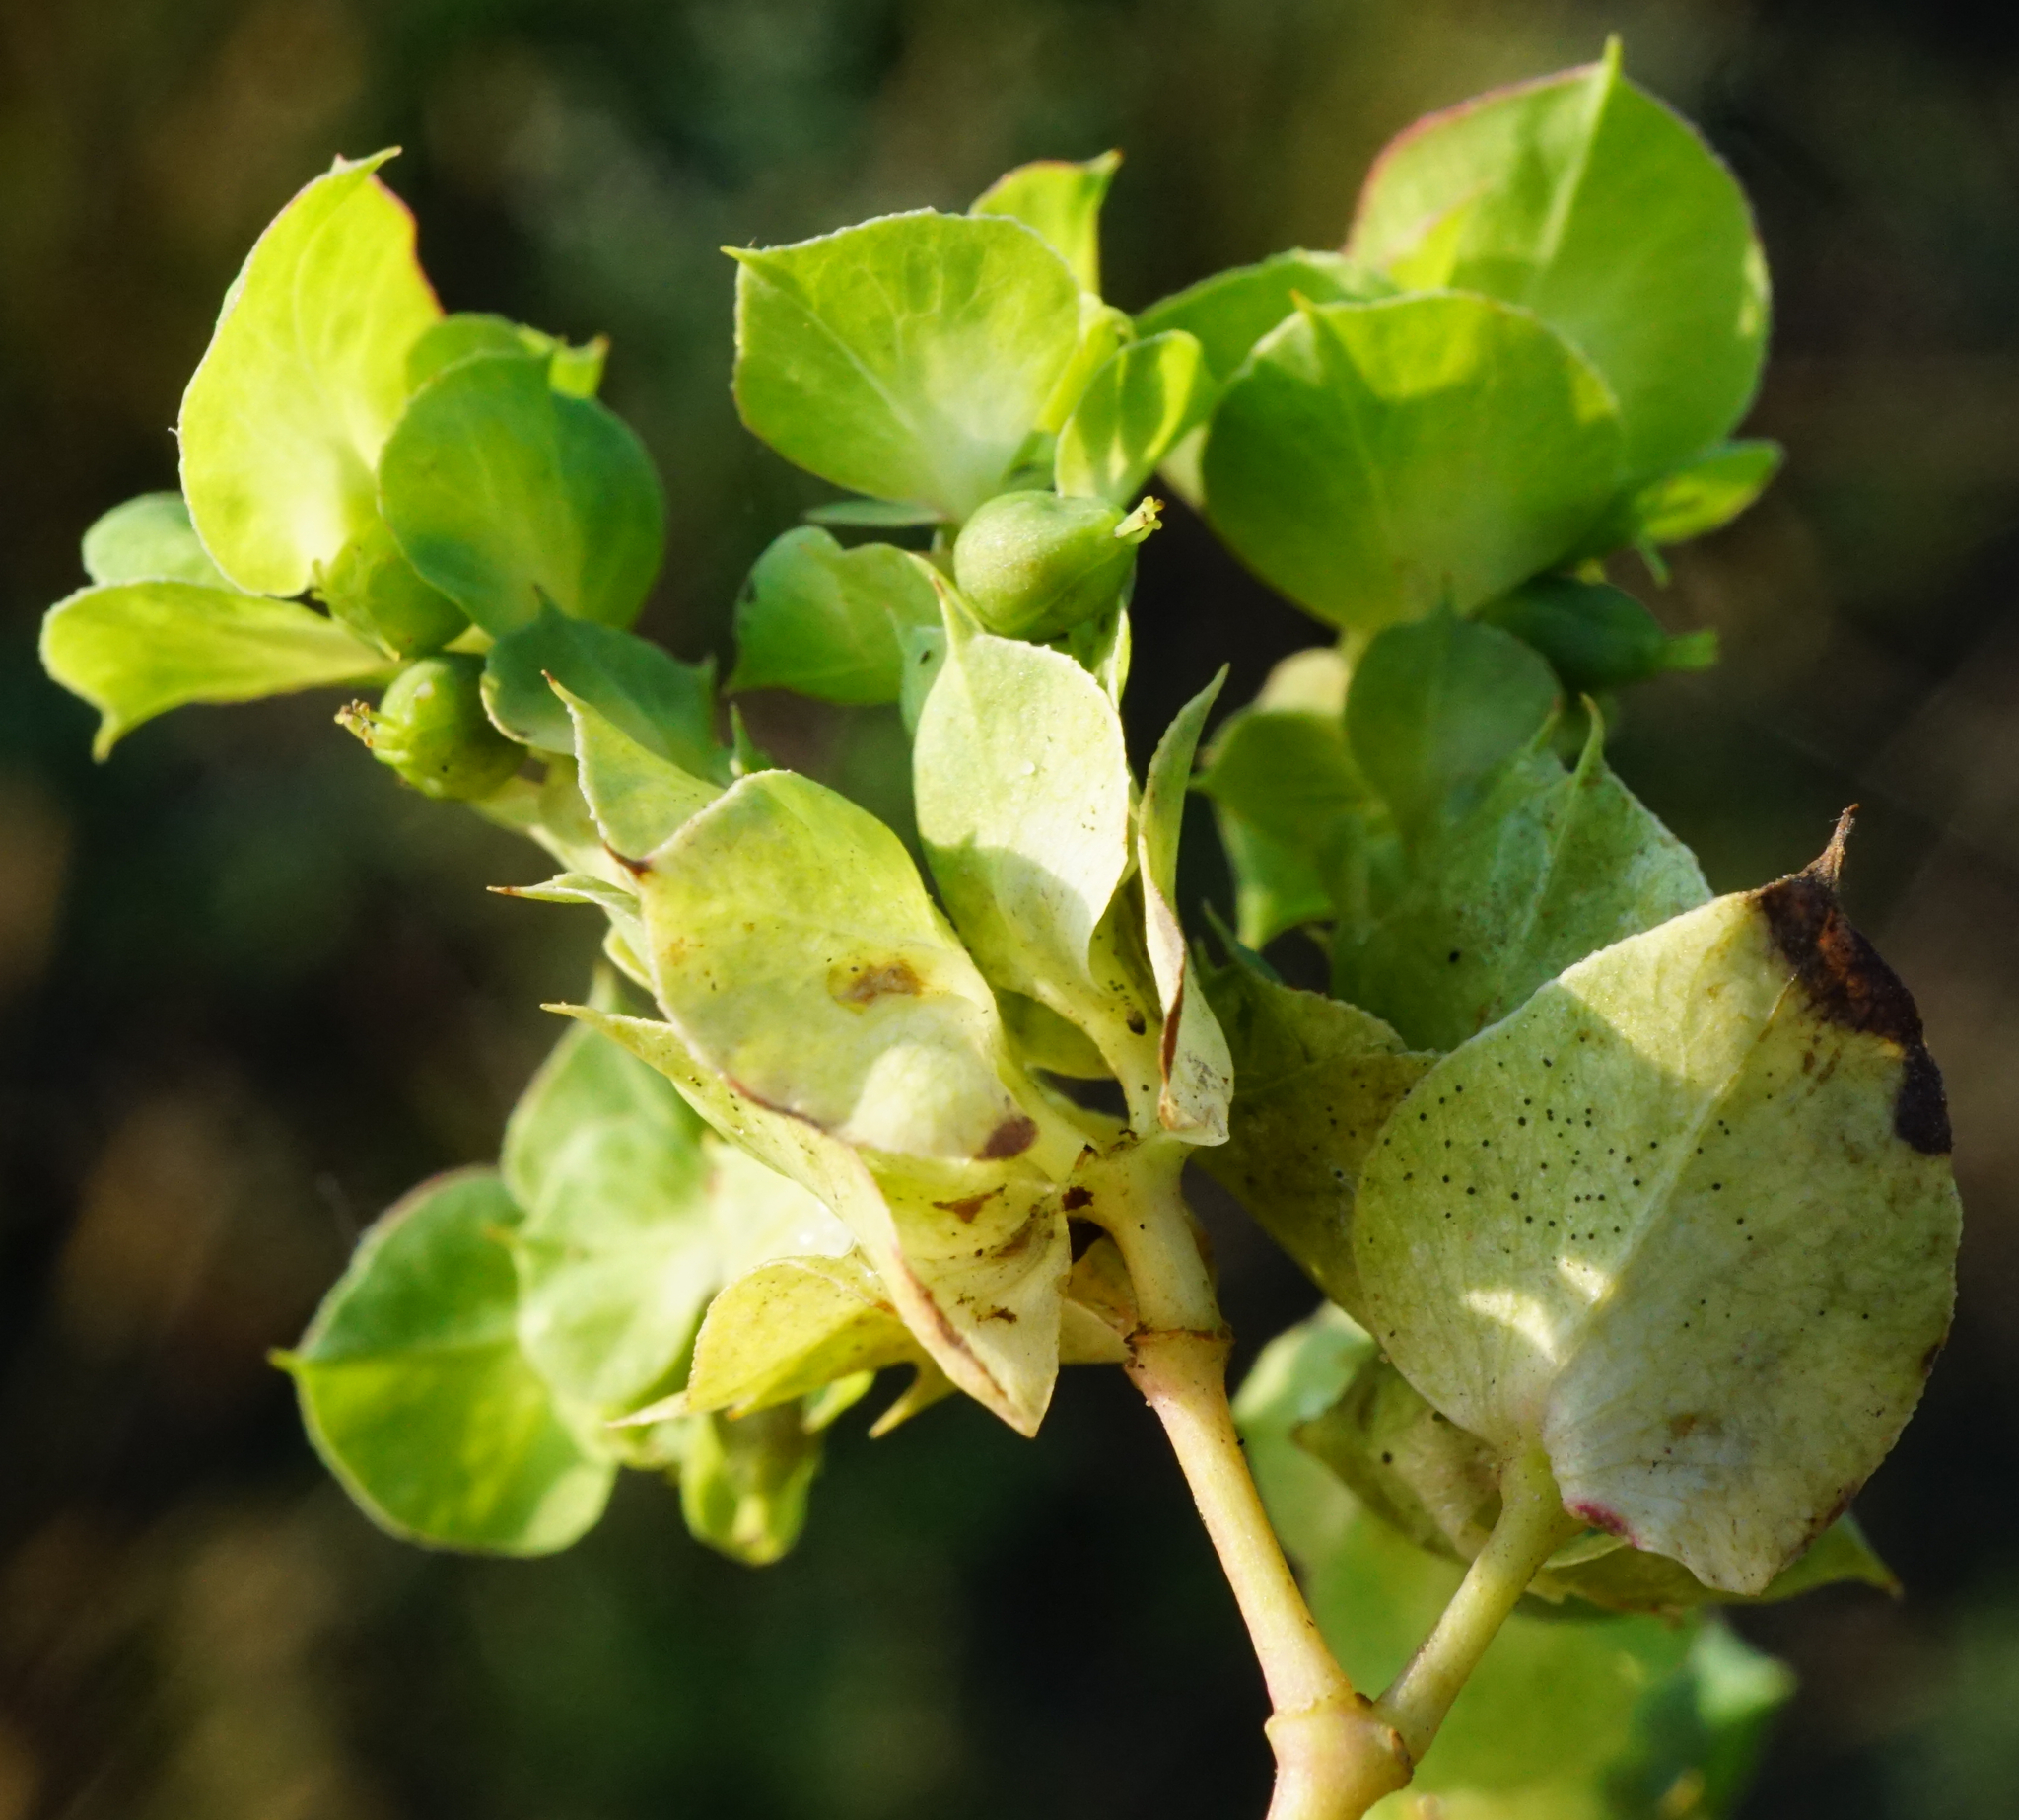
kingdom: Plantae
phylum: Tracheophyta
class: Magnoliopsida
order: Malpighiales
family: Euphorbiaceae
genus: Euphorbia
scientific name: Euphorbia falcata
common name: Sickle spurge
